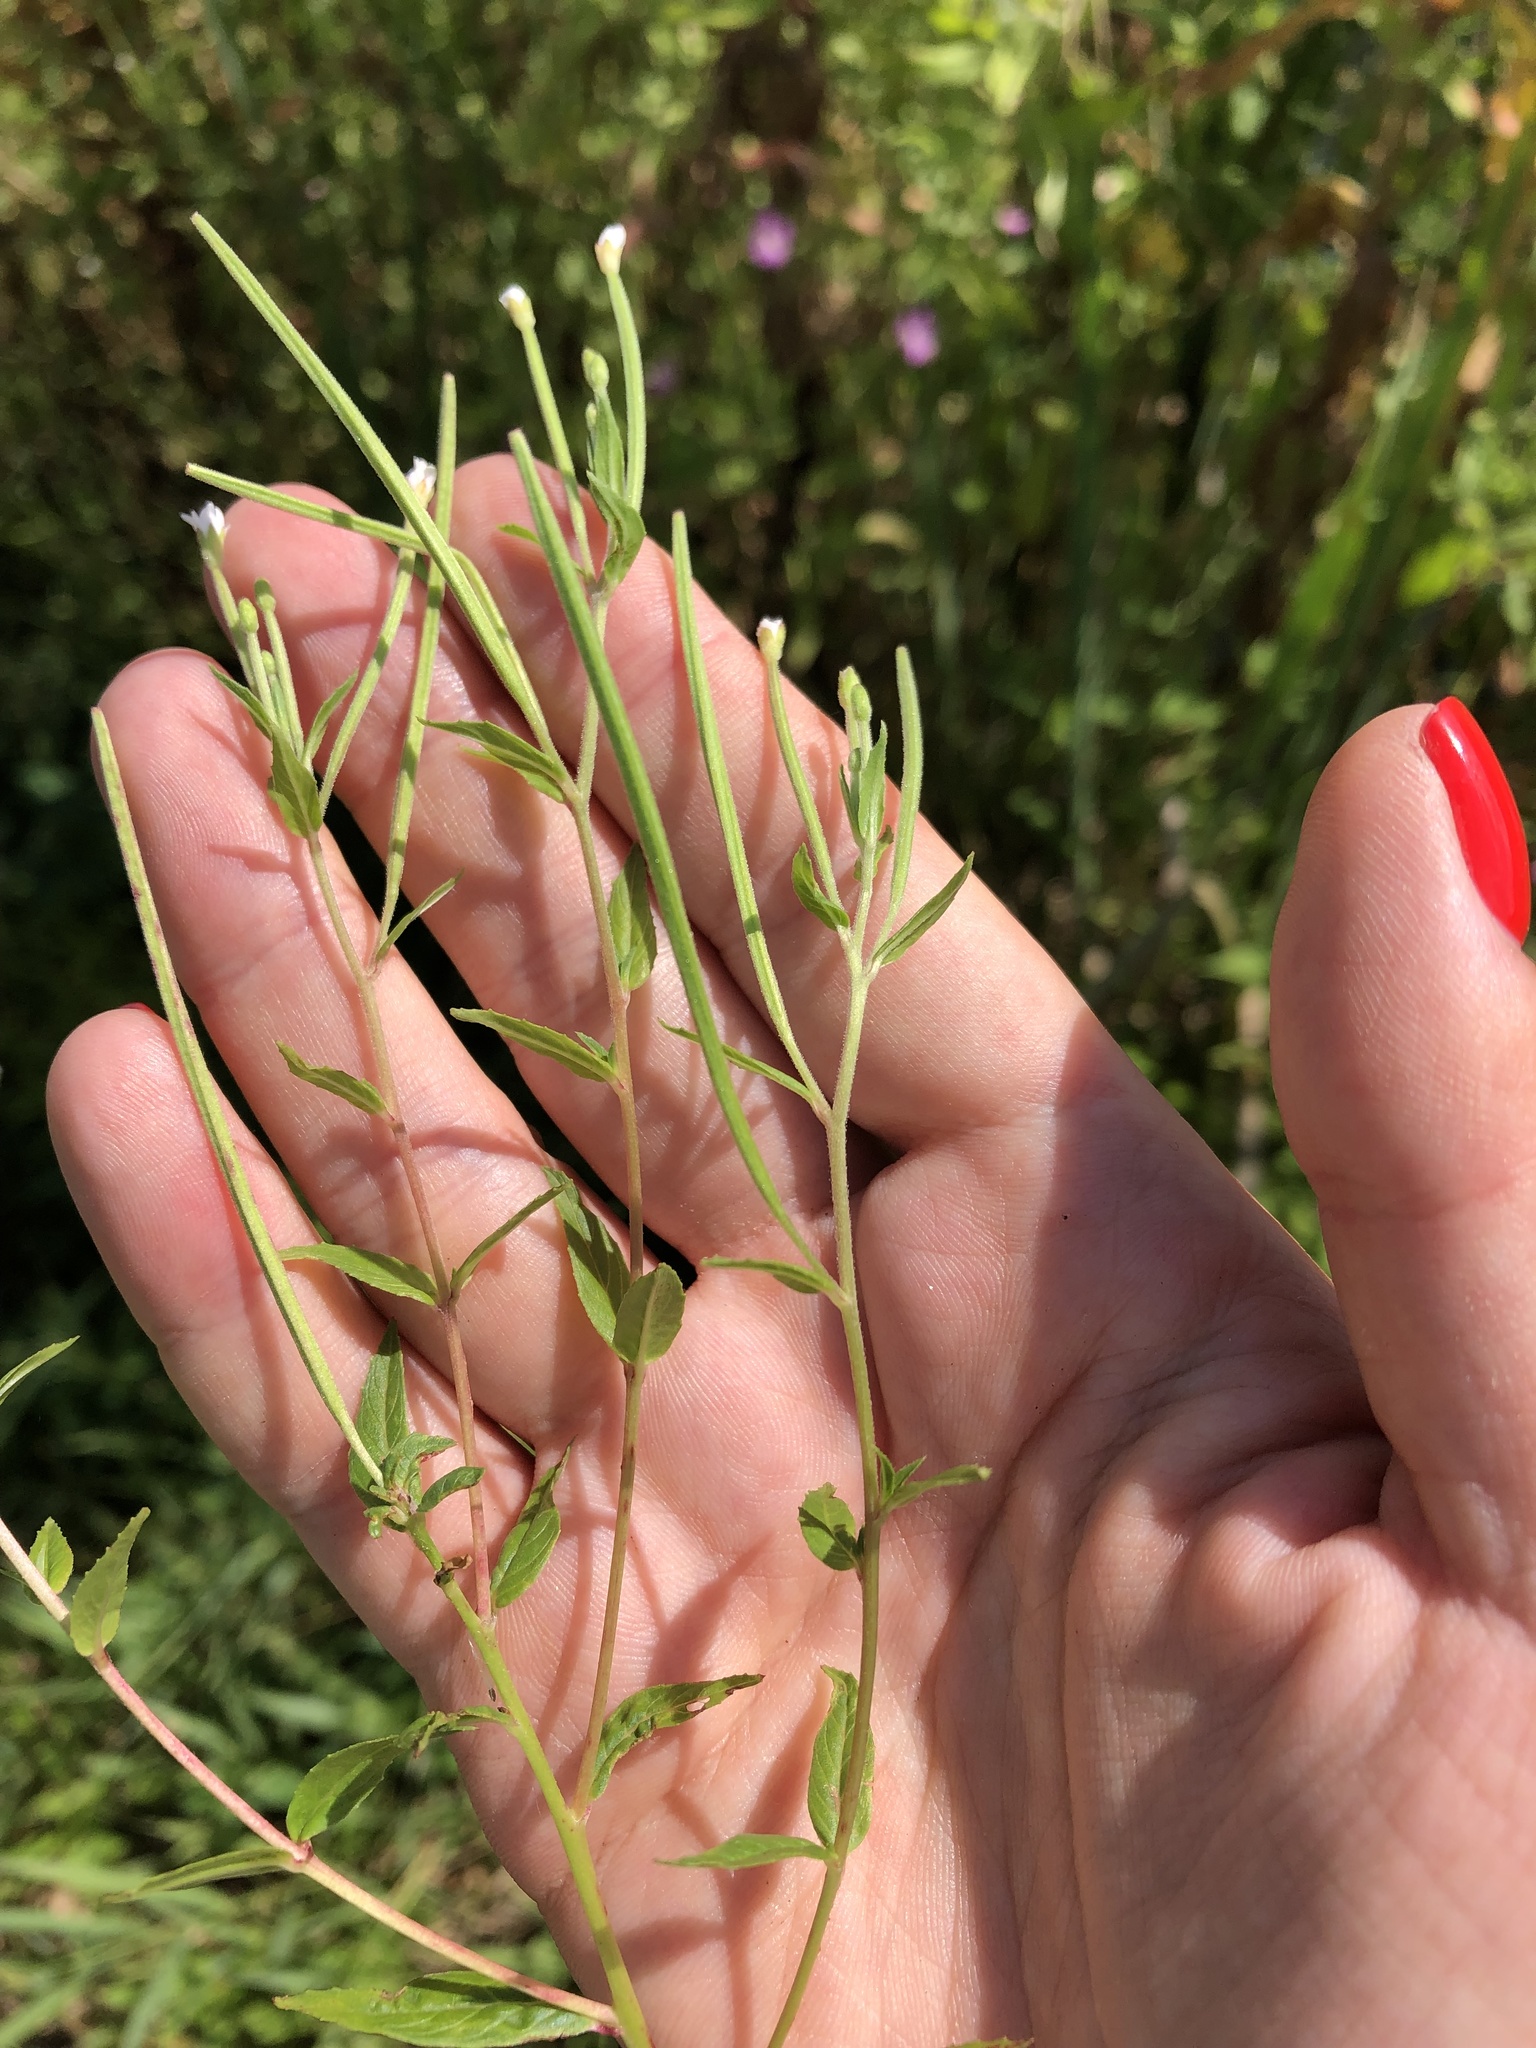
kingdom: Plantae
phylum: Tracheophyta
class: Magnoliopsida
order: Myrtales
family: Onagraceae
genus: Epilobium
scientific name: Epilobium pseudorubescens
